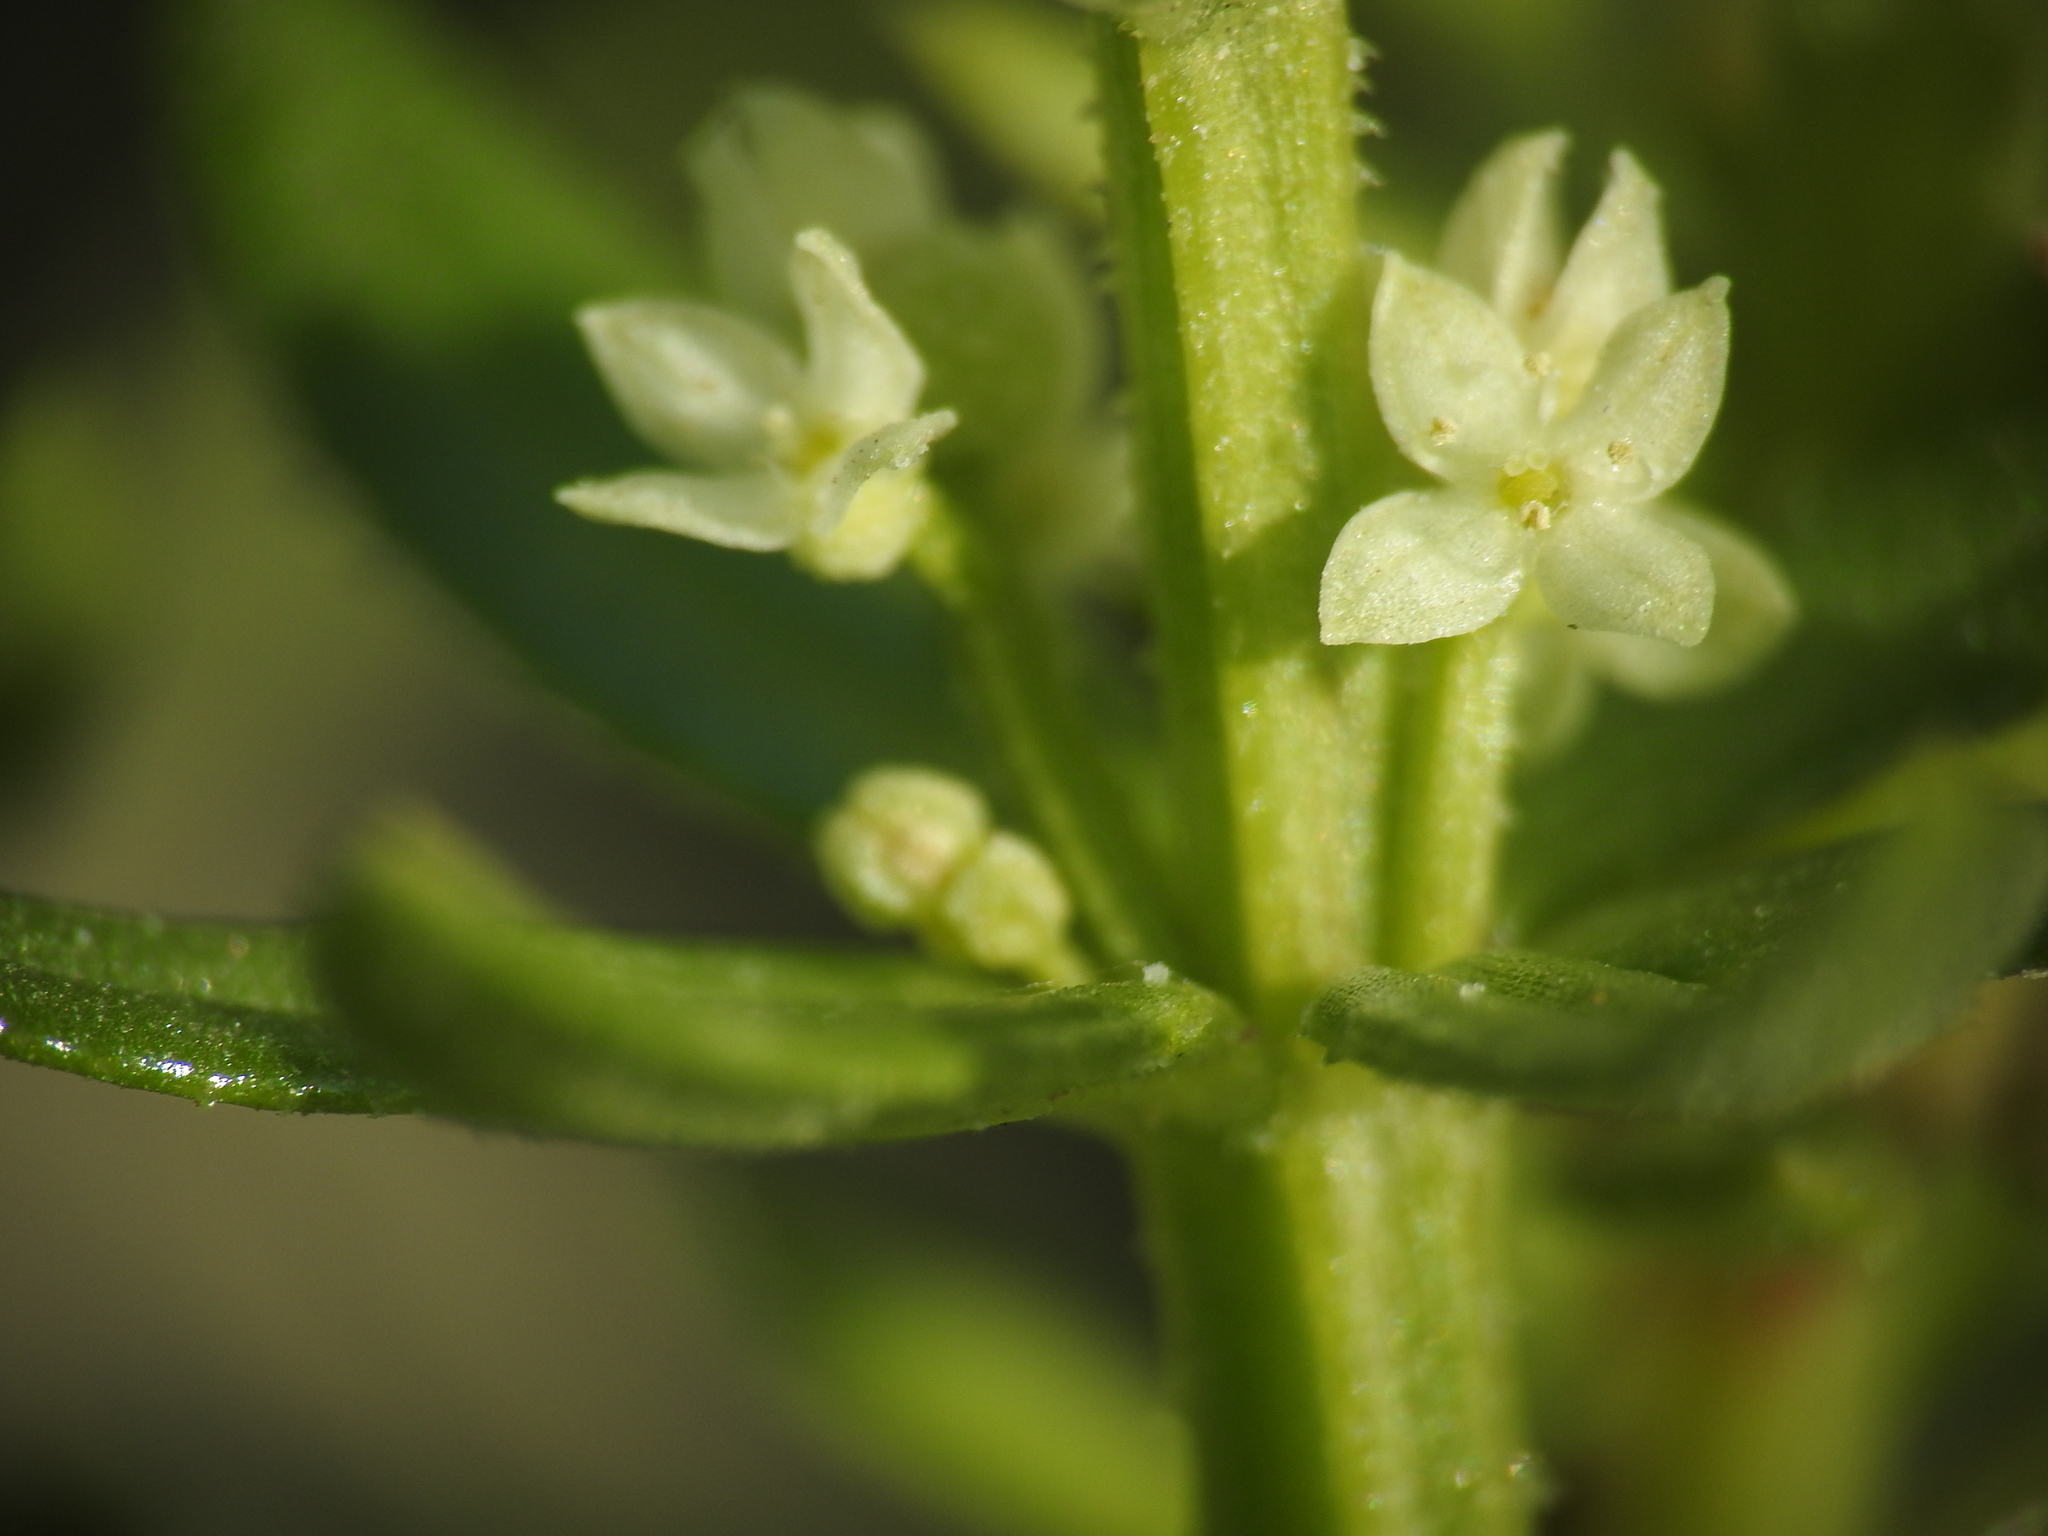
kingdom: Plantae
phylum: Tracheophyta
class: Magnoliopsida
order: Gentianales
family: Rubiaceae
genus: Galium
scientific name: Galium verrucosum
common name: Warty bedstraw
